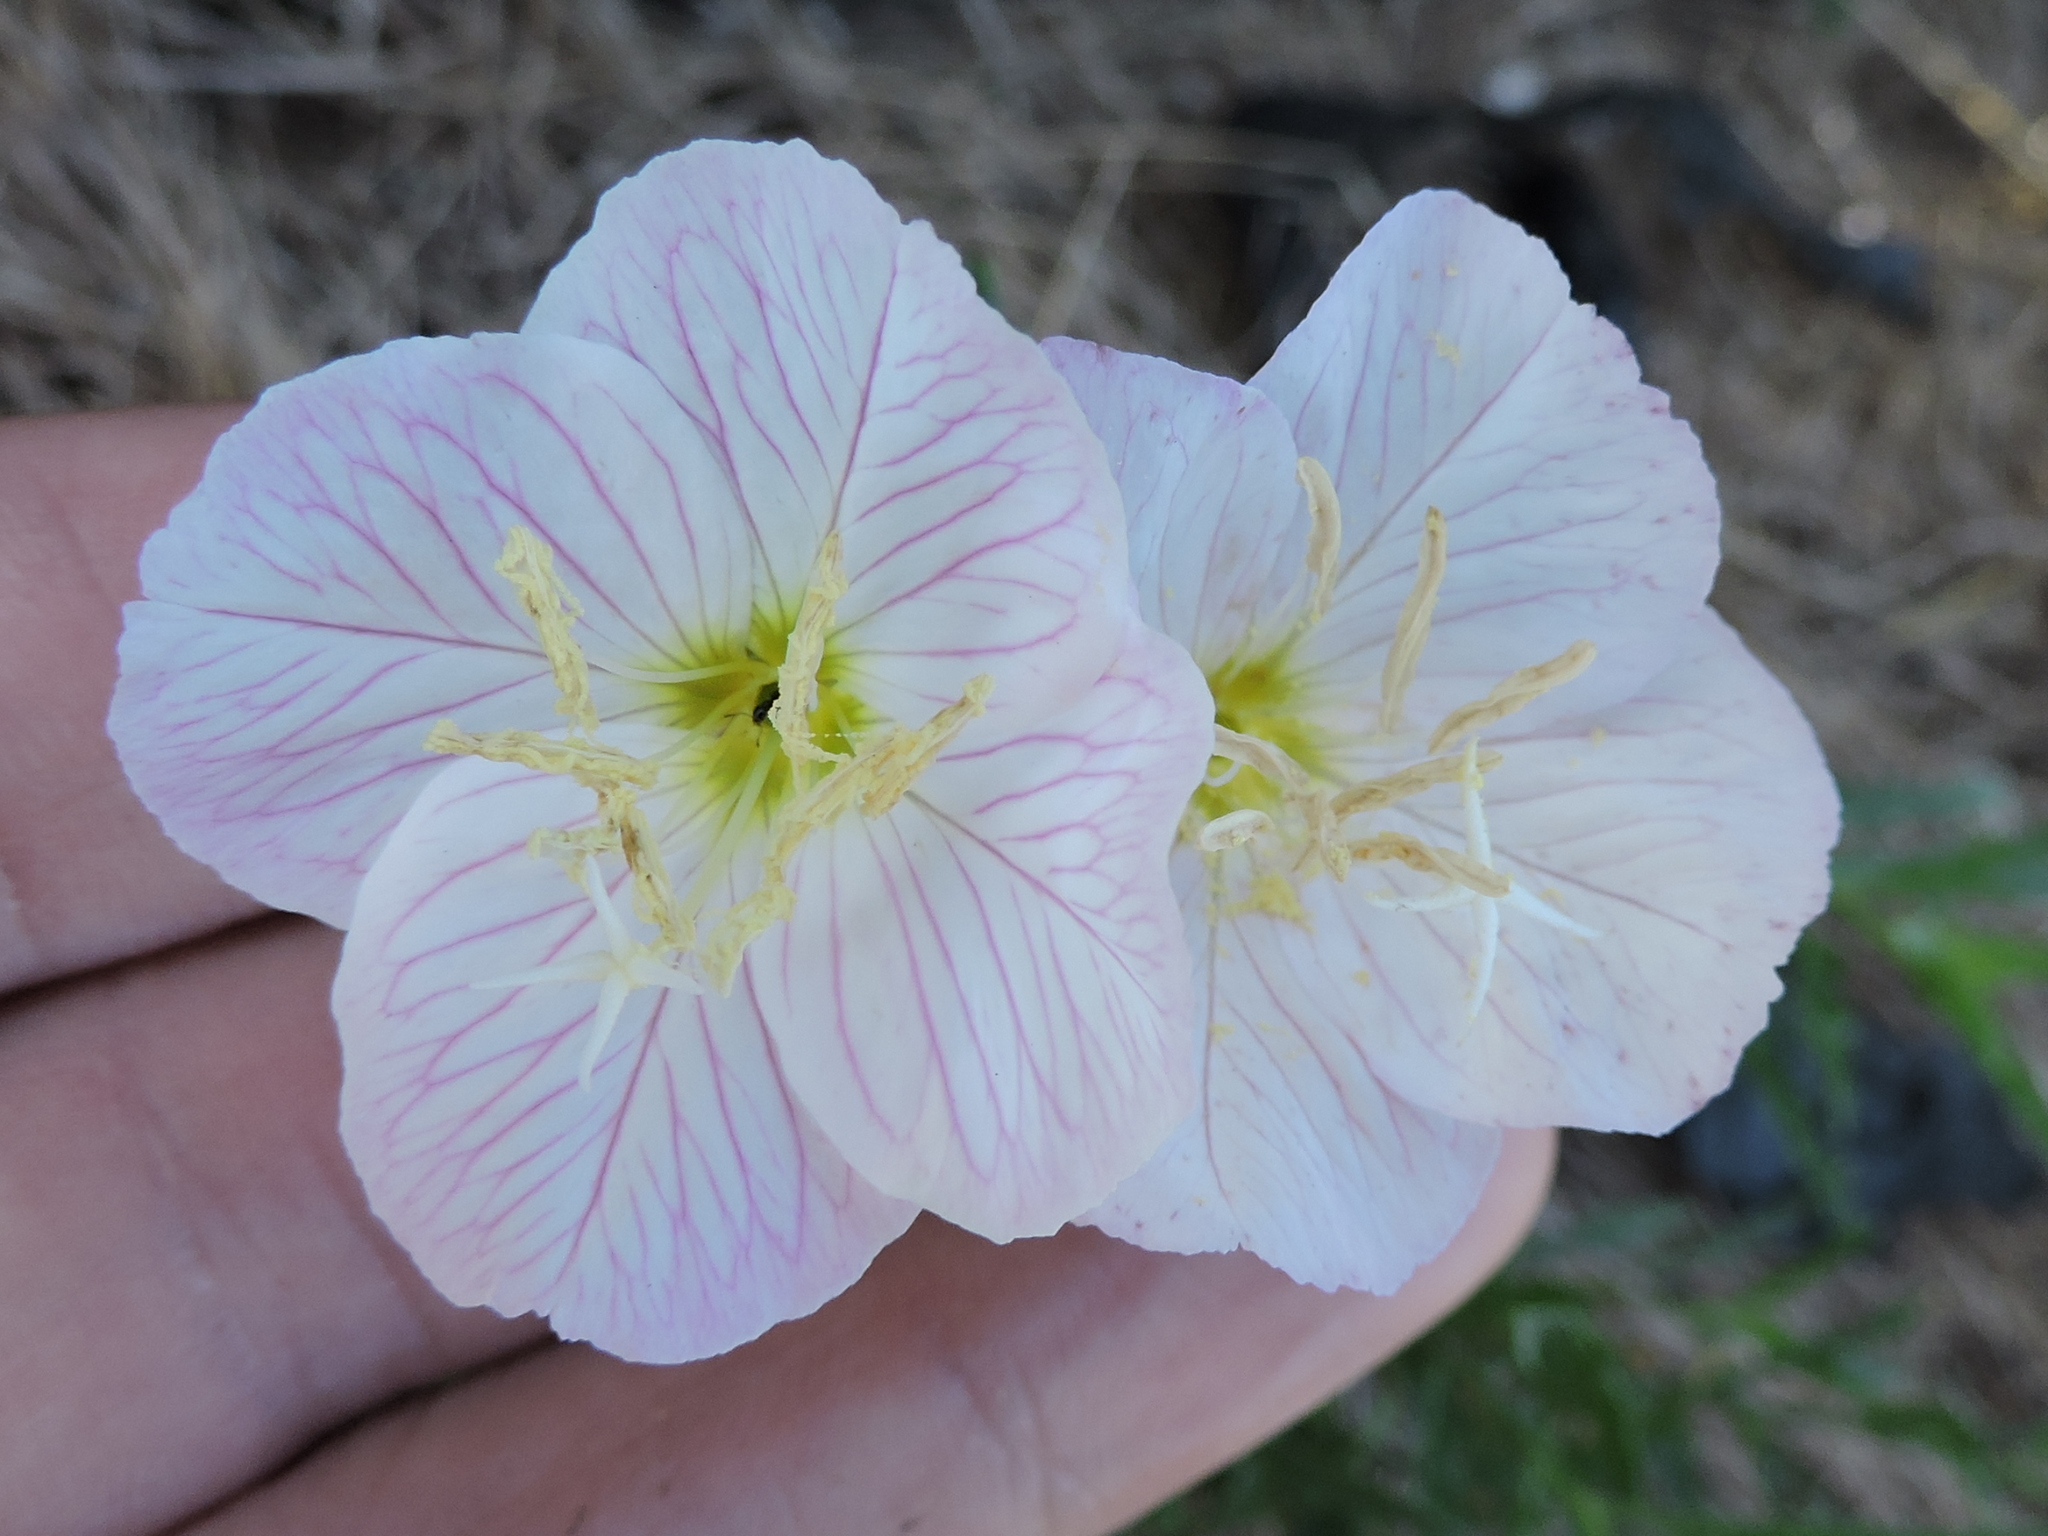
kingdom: Plantae
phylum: Tracheophyta
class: Magnoliopsida
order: Myrtales
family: Onagraceae
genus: Oenothera
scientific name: Oenothera speciosa
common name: White evening-primrose
